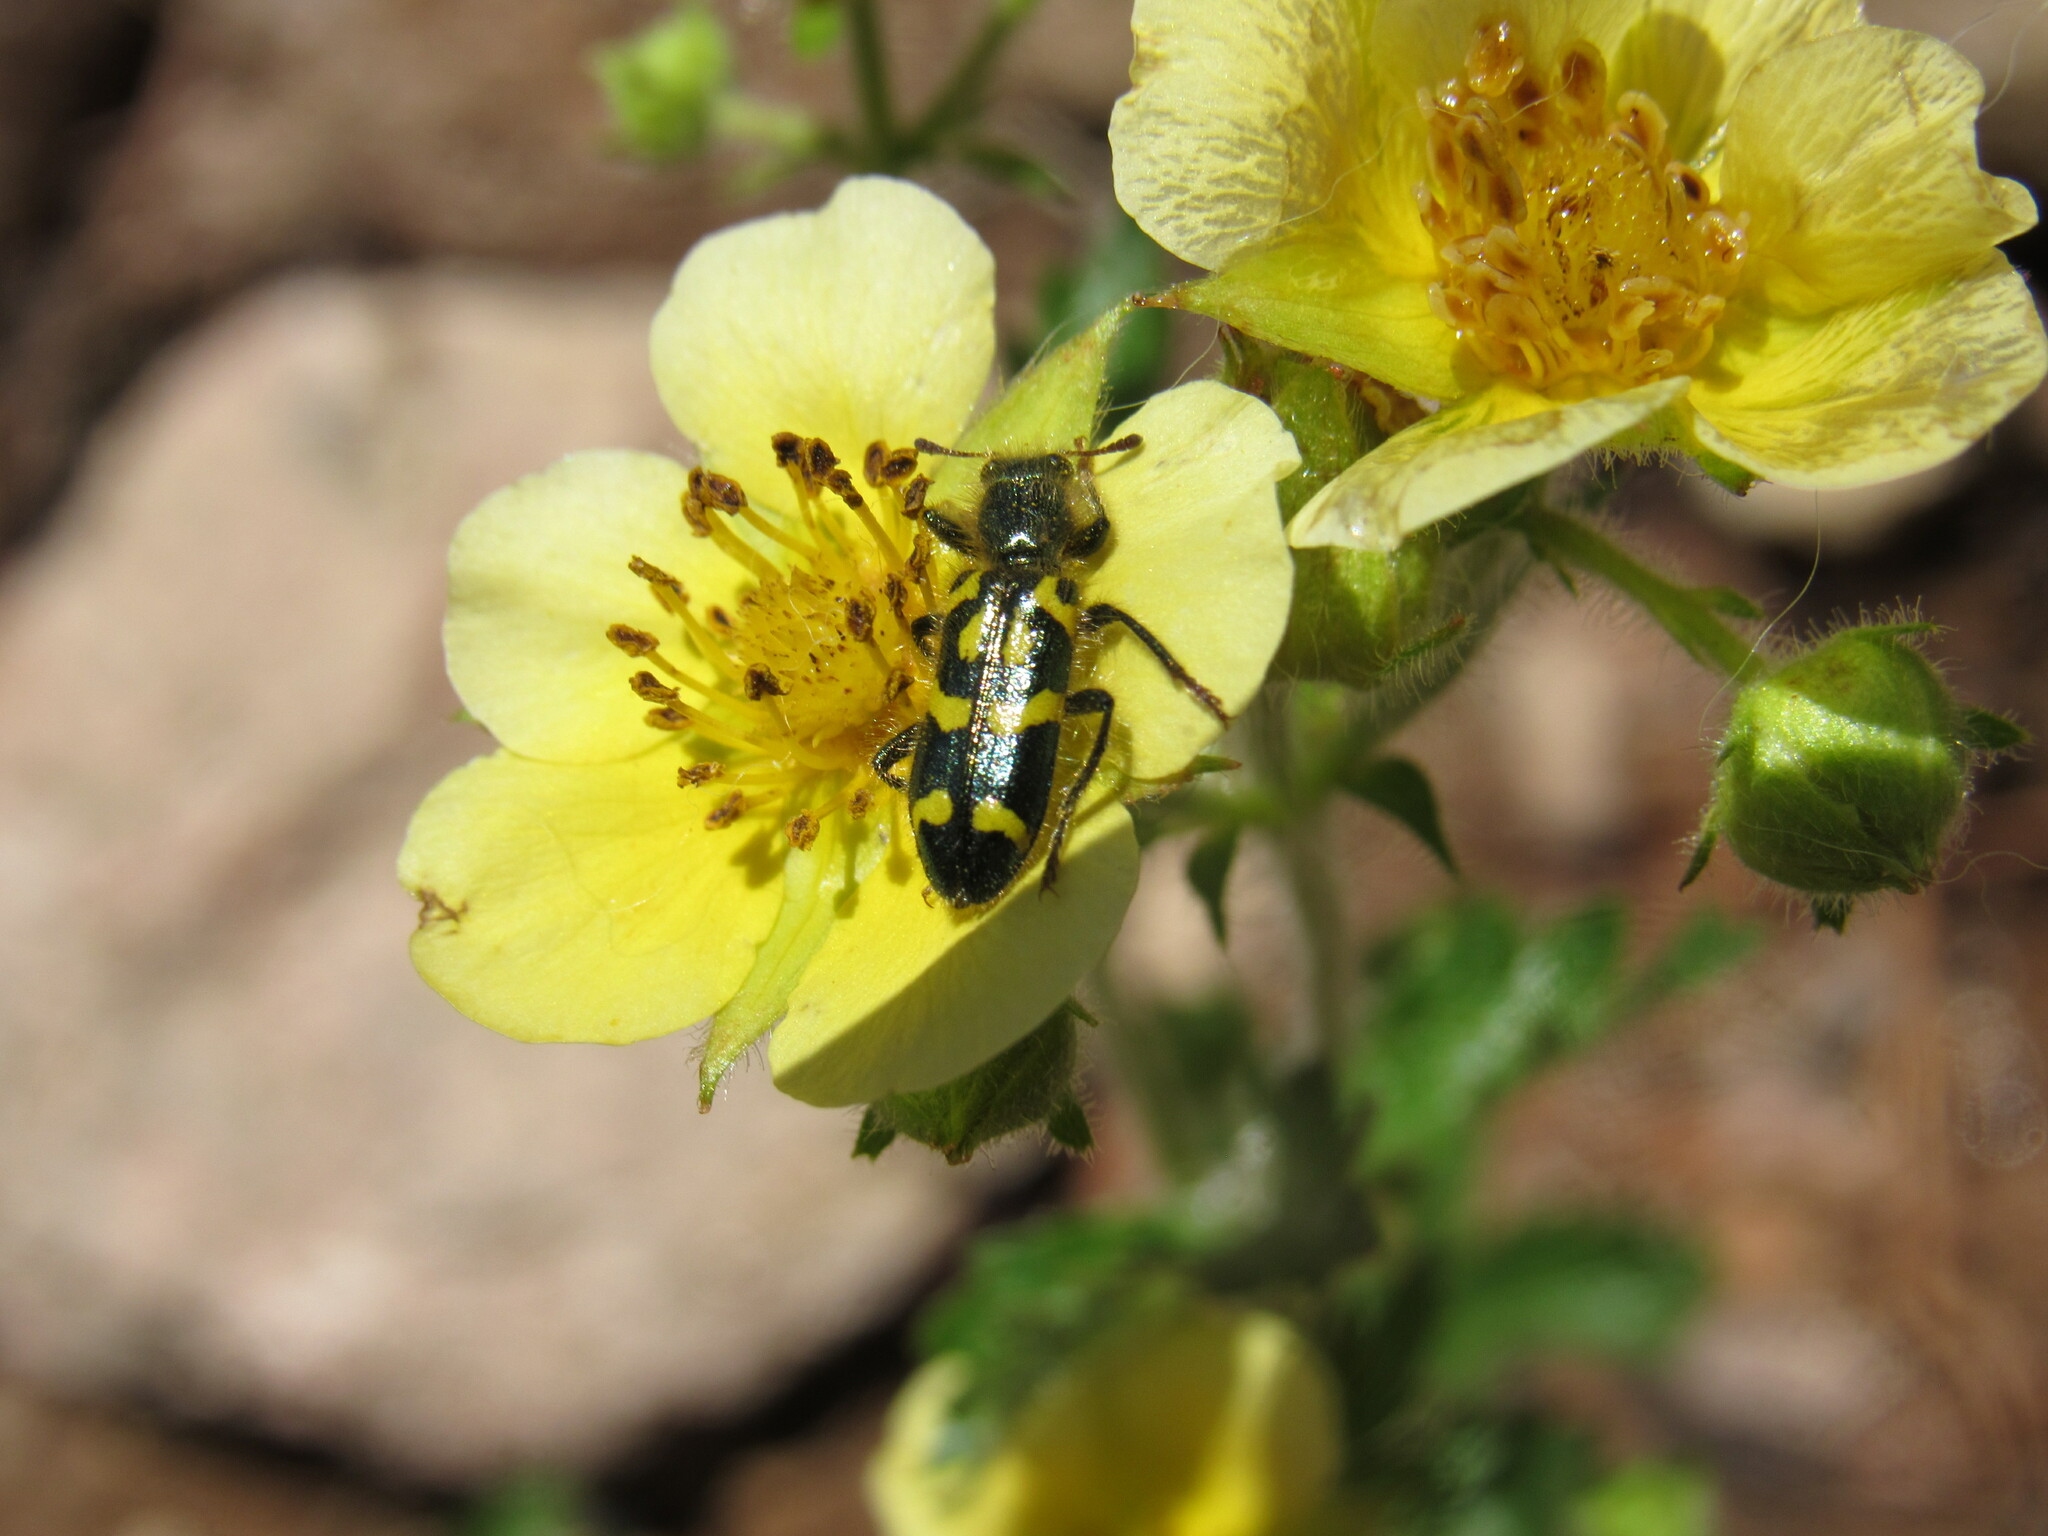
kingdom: Animalia
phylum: Arthropoda
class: Insecta
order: Coleoptera
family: Cleridae
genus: Trichodes
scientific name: Trichodes ornatus
